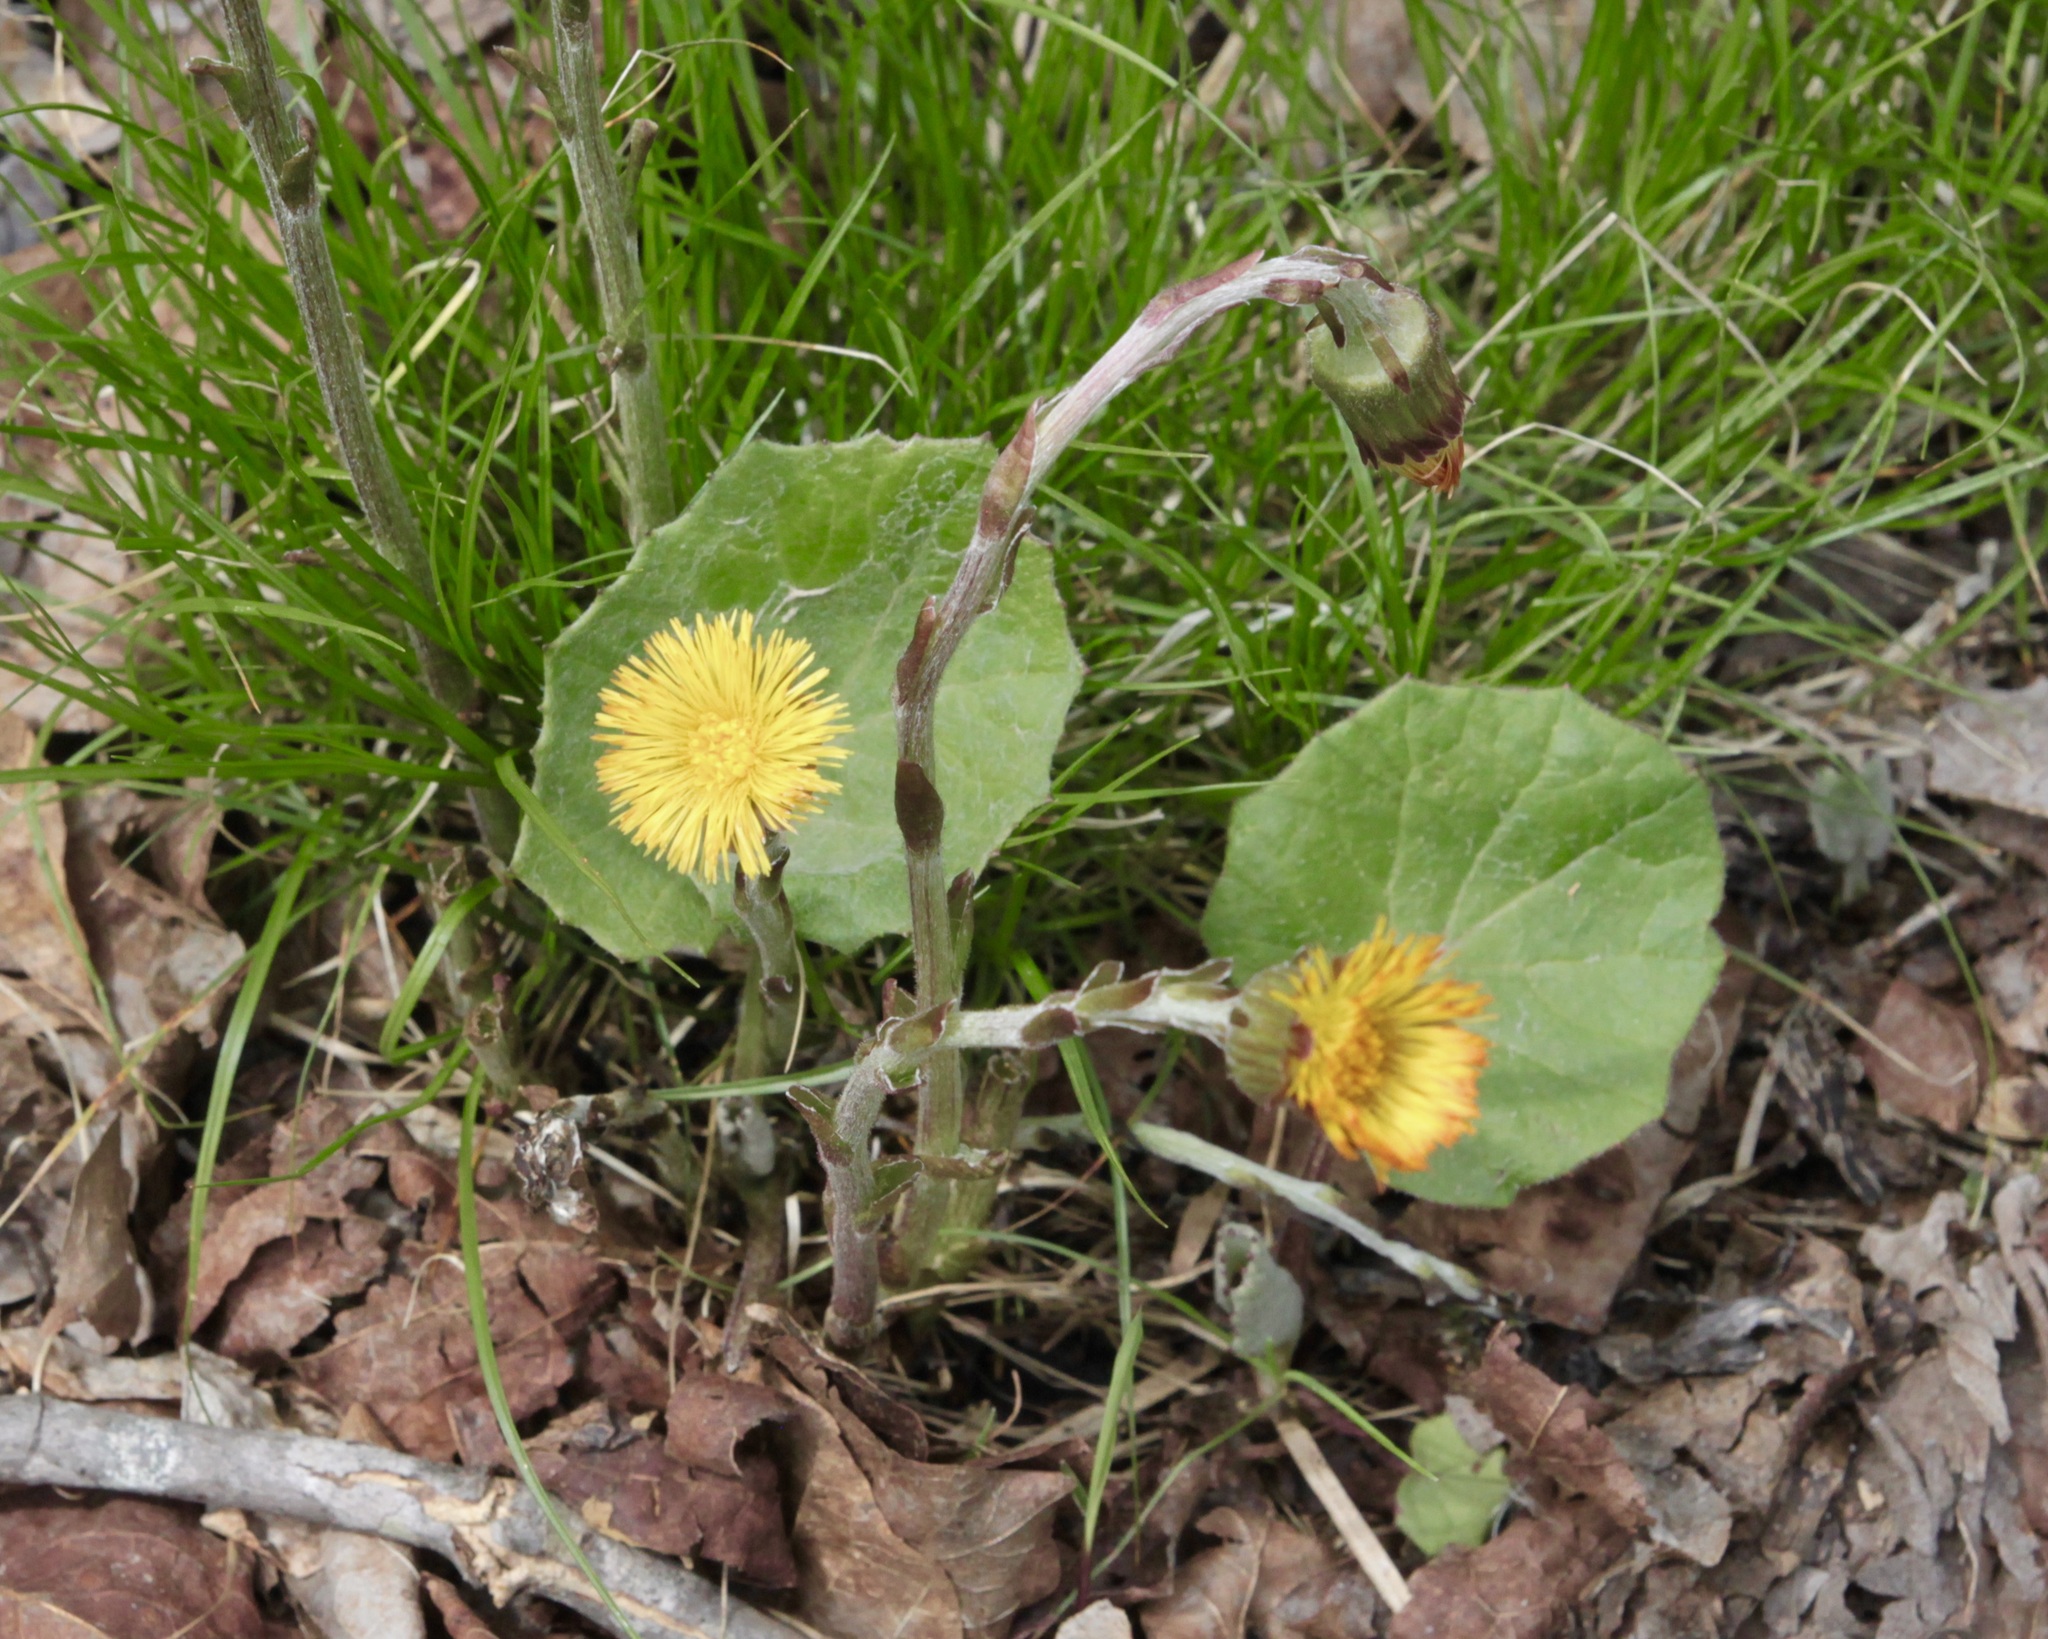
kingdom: Plantae
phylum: Tracheophyta
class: Magnoliopsida
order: Asterales
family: Asteraceae
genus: Tussilago
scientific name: Tussilago farfara
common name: Coltsfoot
